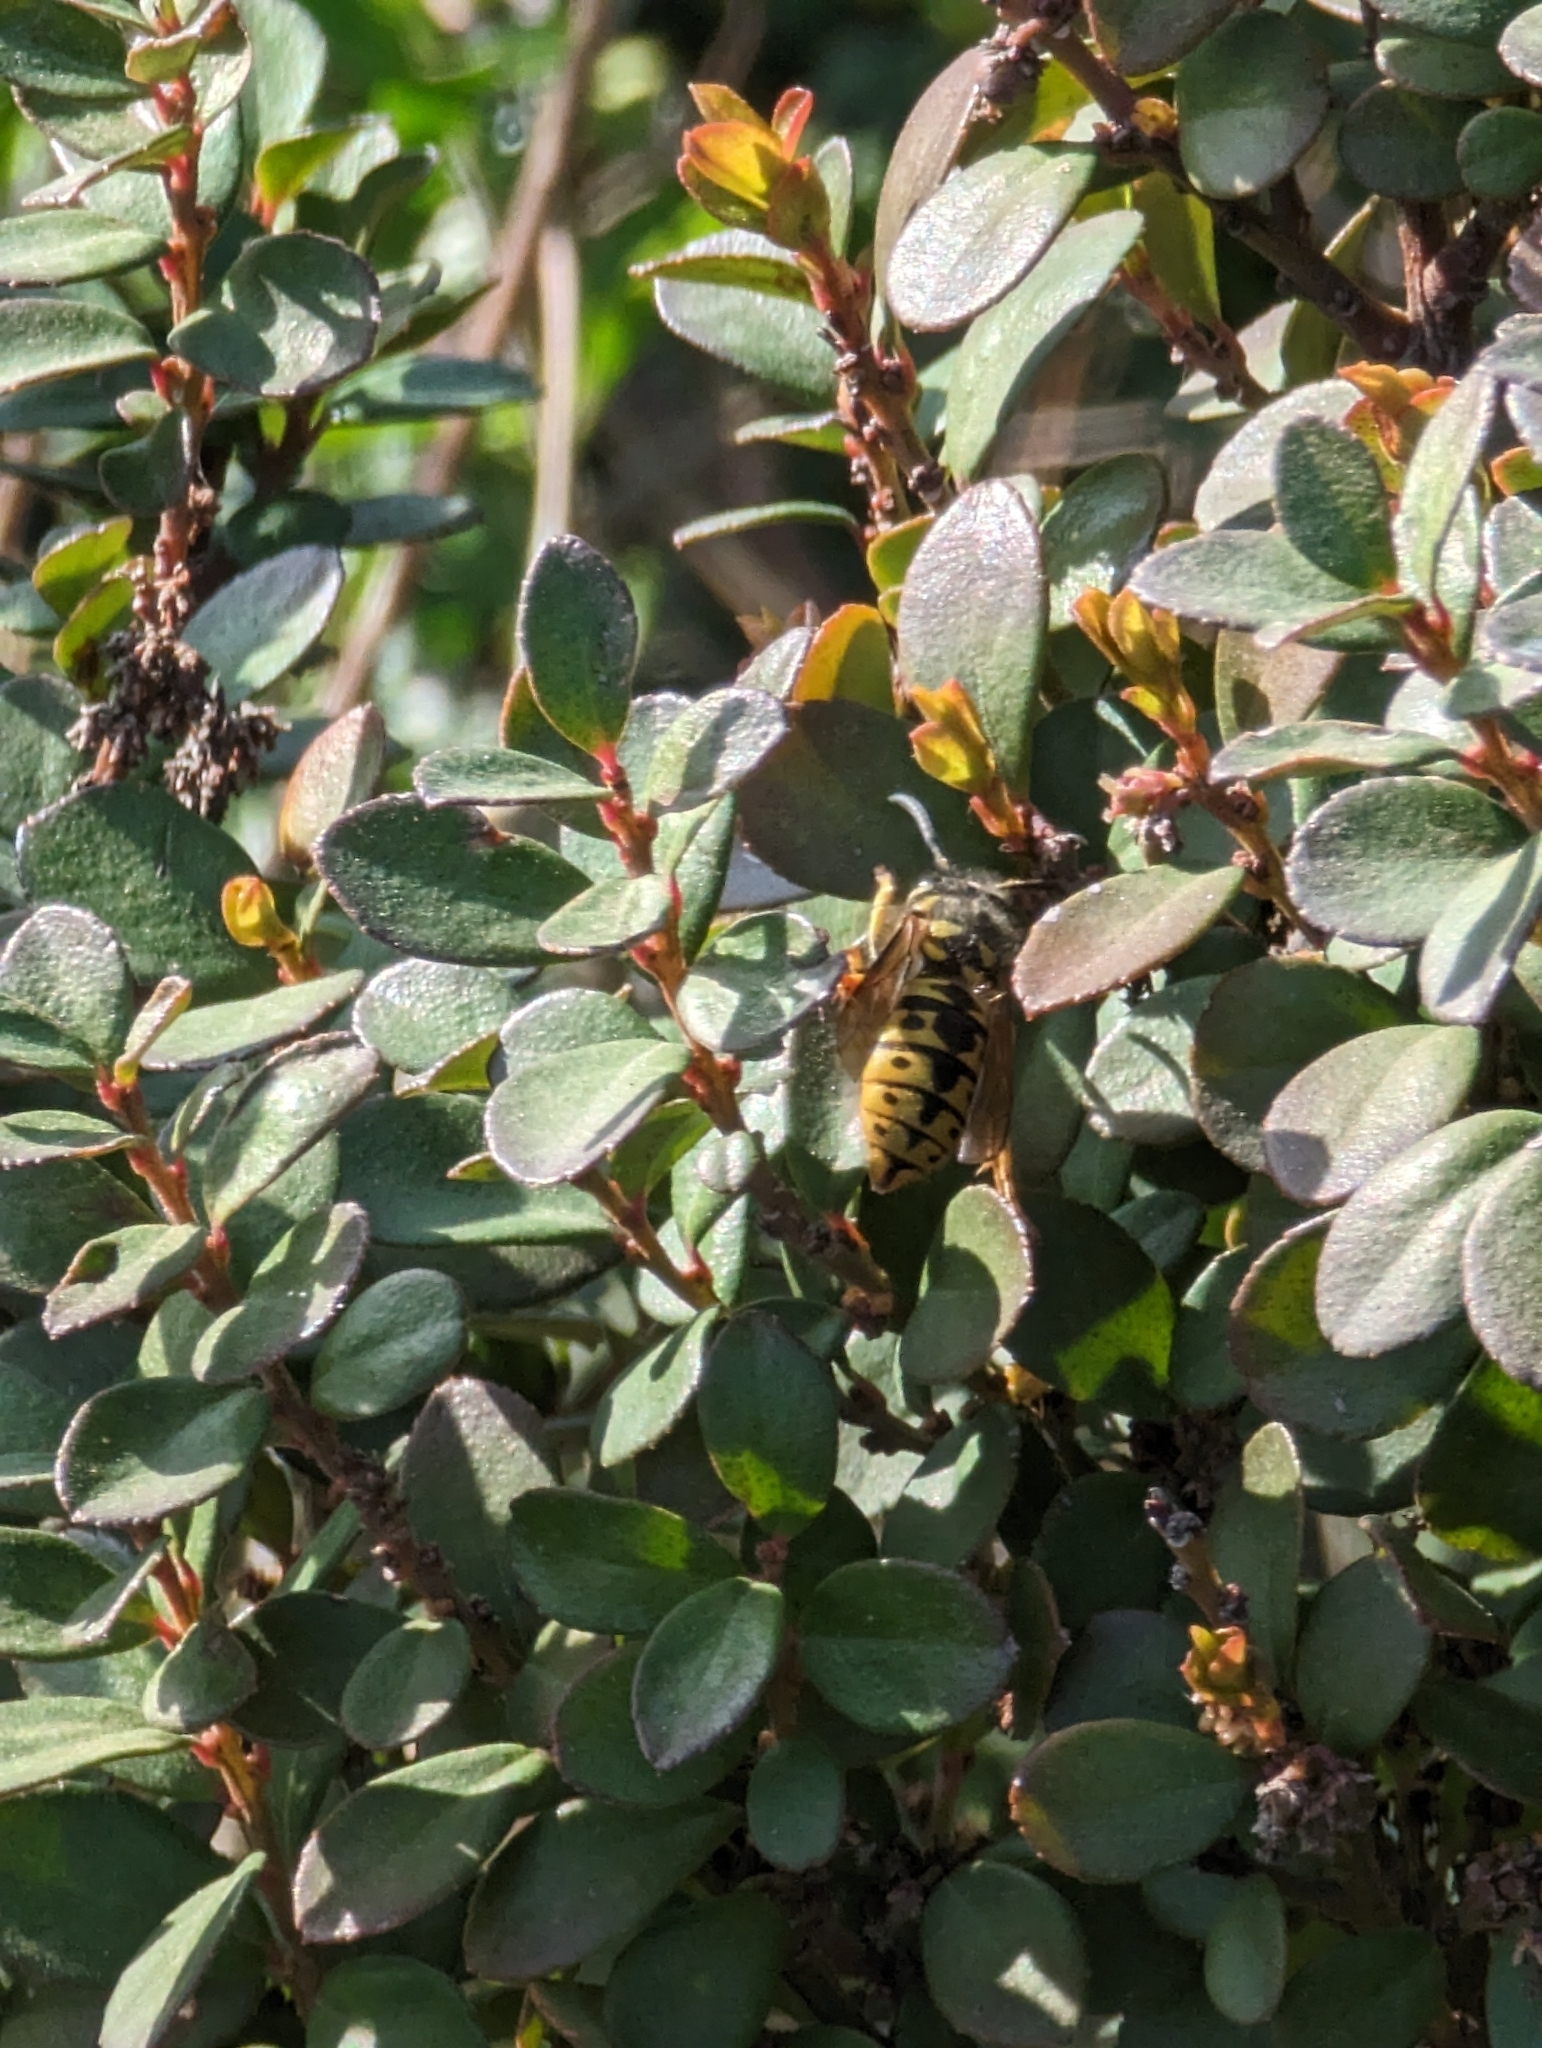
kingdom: Animalia
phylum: Arthropoda
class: Insecta
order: Hymenoptera
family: Vespidae
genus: Vespula
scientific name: Vespula germanica
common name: German wasp
